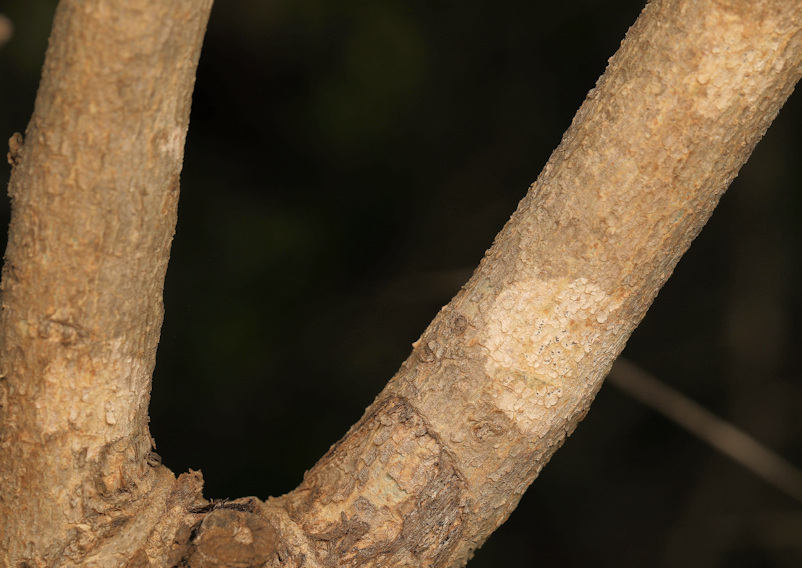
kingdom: Plantae
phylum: Tracheophyta
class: Magnoliopsida
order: Gentianales
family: Rubiaceae
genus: Vangueria
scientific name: Vangueria infausta
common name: Medlar
